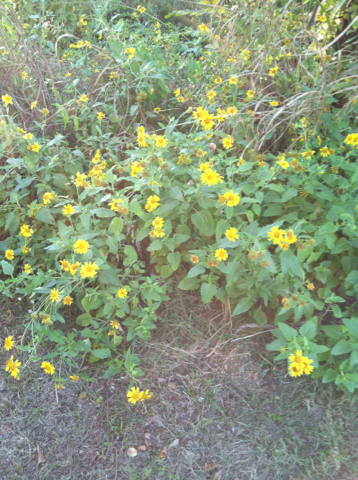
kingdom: Plantae
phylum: Tracheophyta
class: Magnoliopsida
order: Asterales
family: Asteraceae
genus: Verbesina
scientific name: Verbesina encelioides
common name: Golden crownbeard
